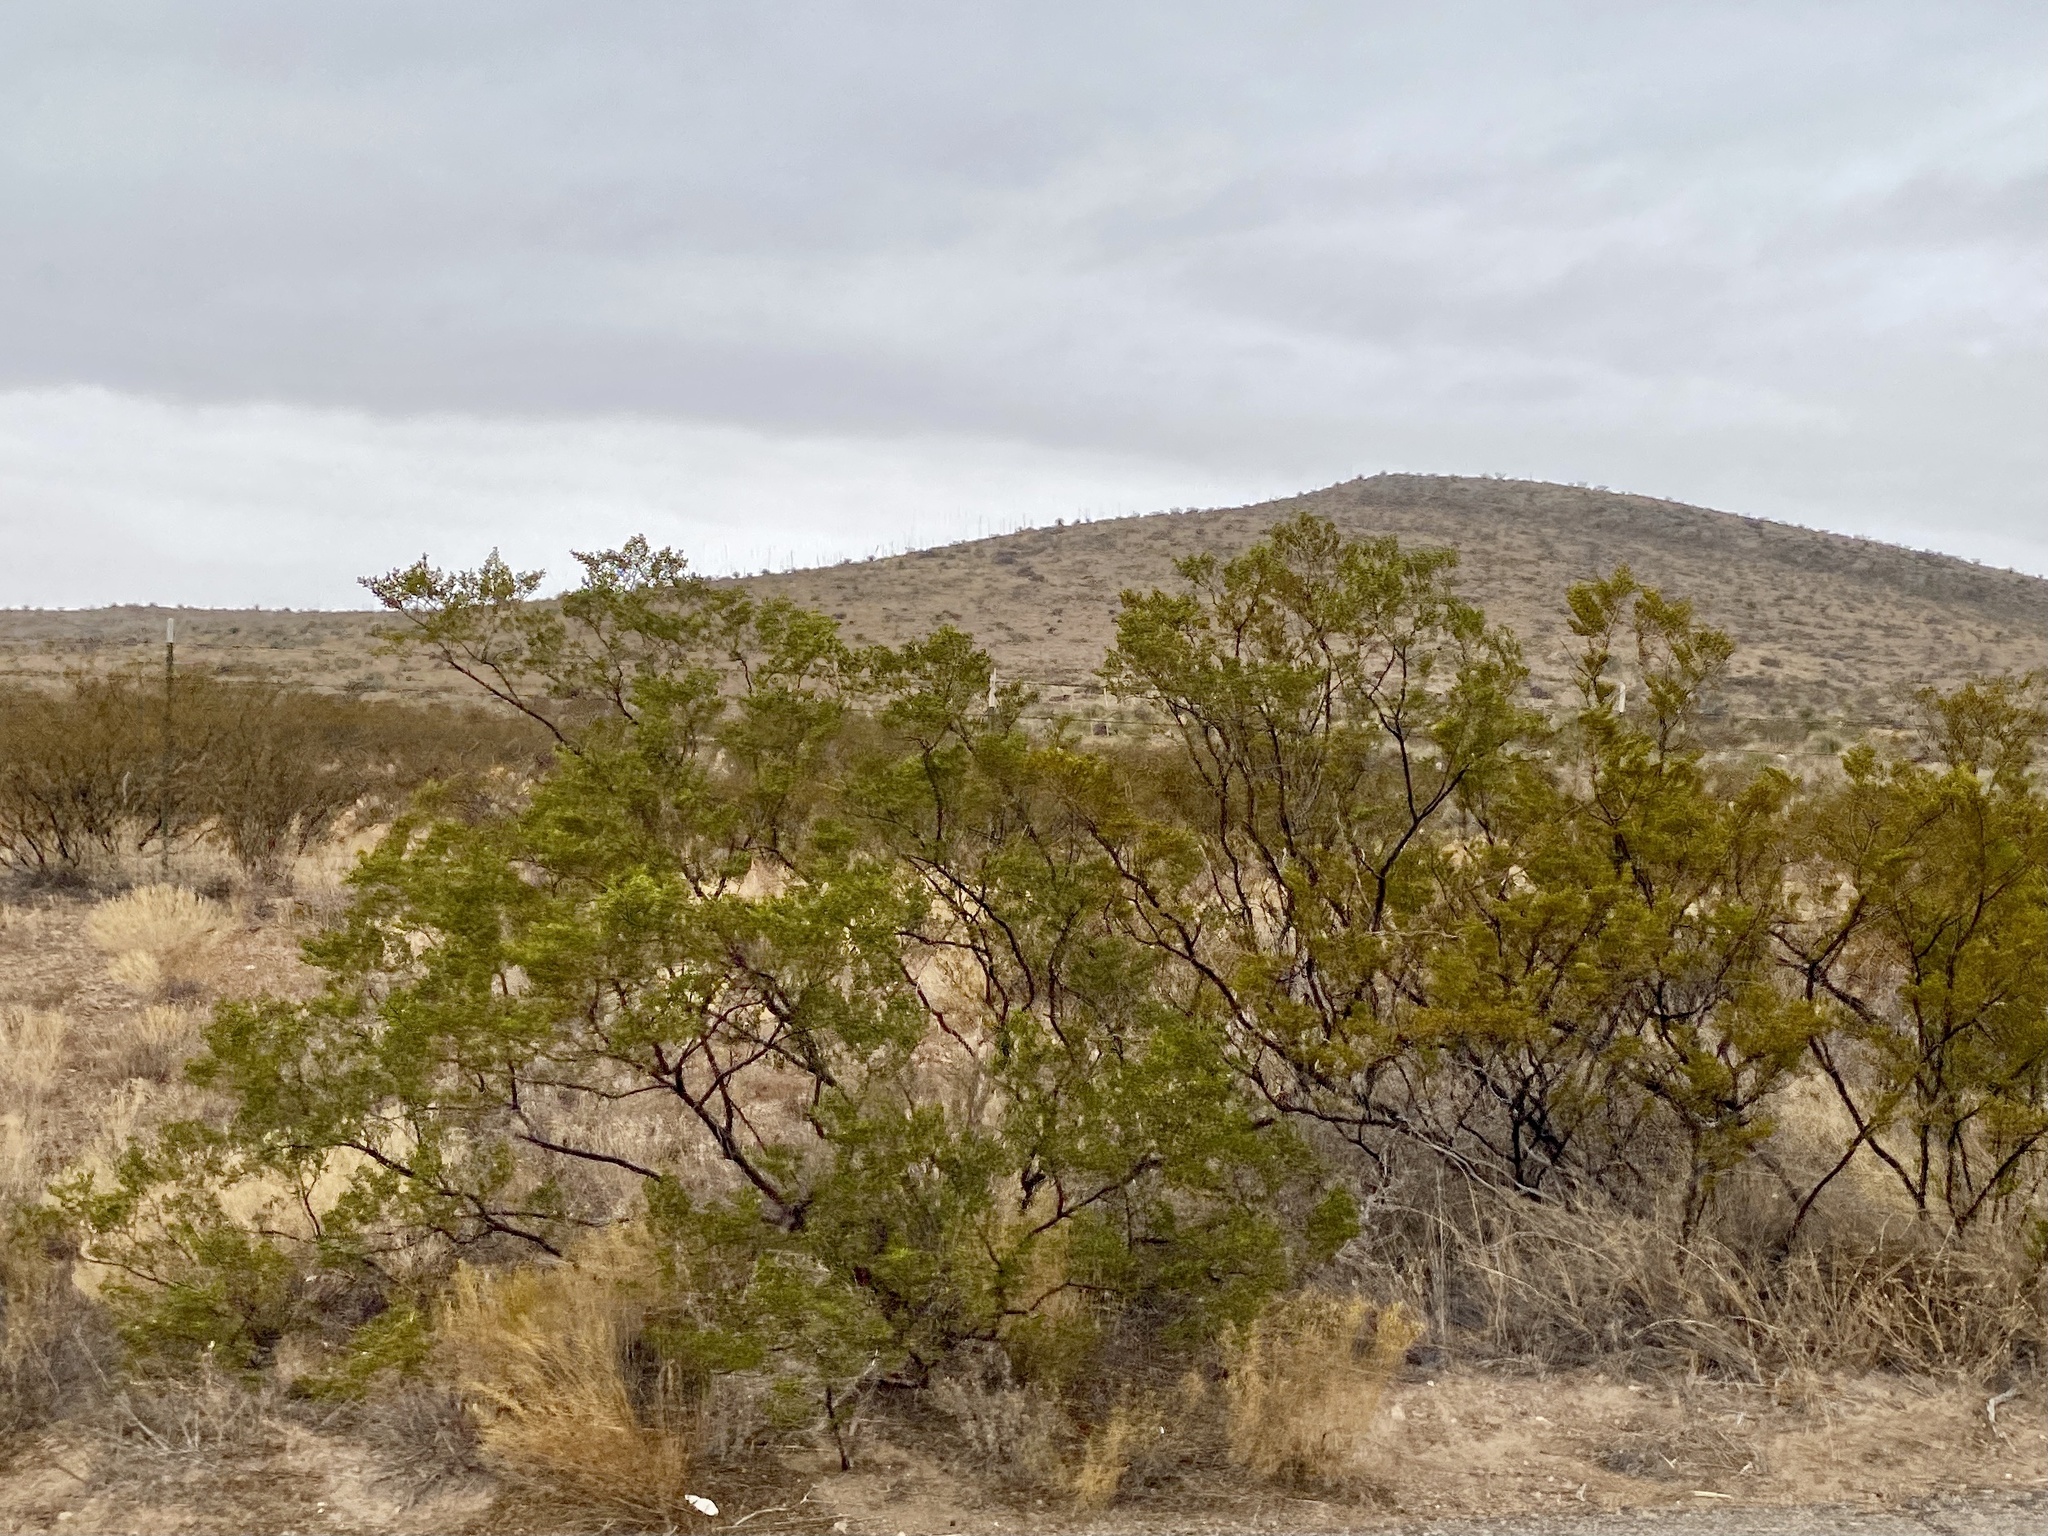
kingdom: Plantae
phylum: Tracheophyta
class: Magnoliopsida
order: Zygophyllales
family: Zygophyllaceae
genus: Larrea
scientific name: Larrea tridentata
